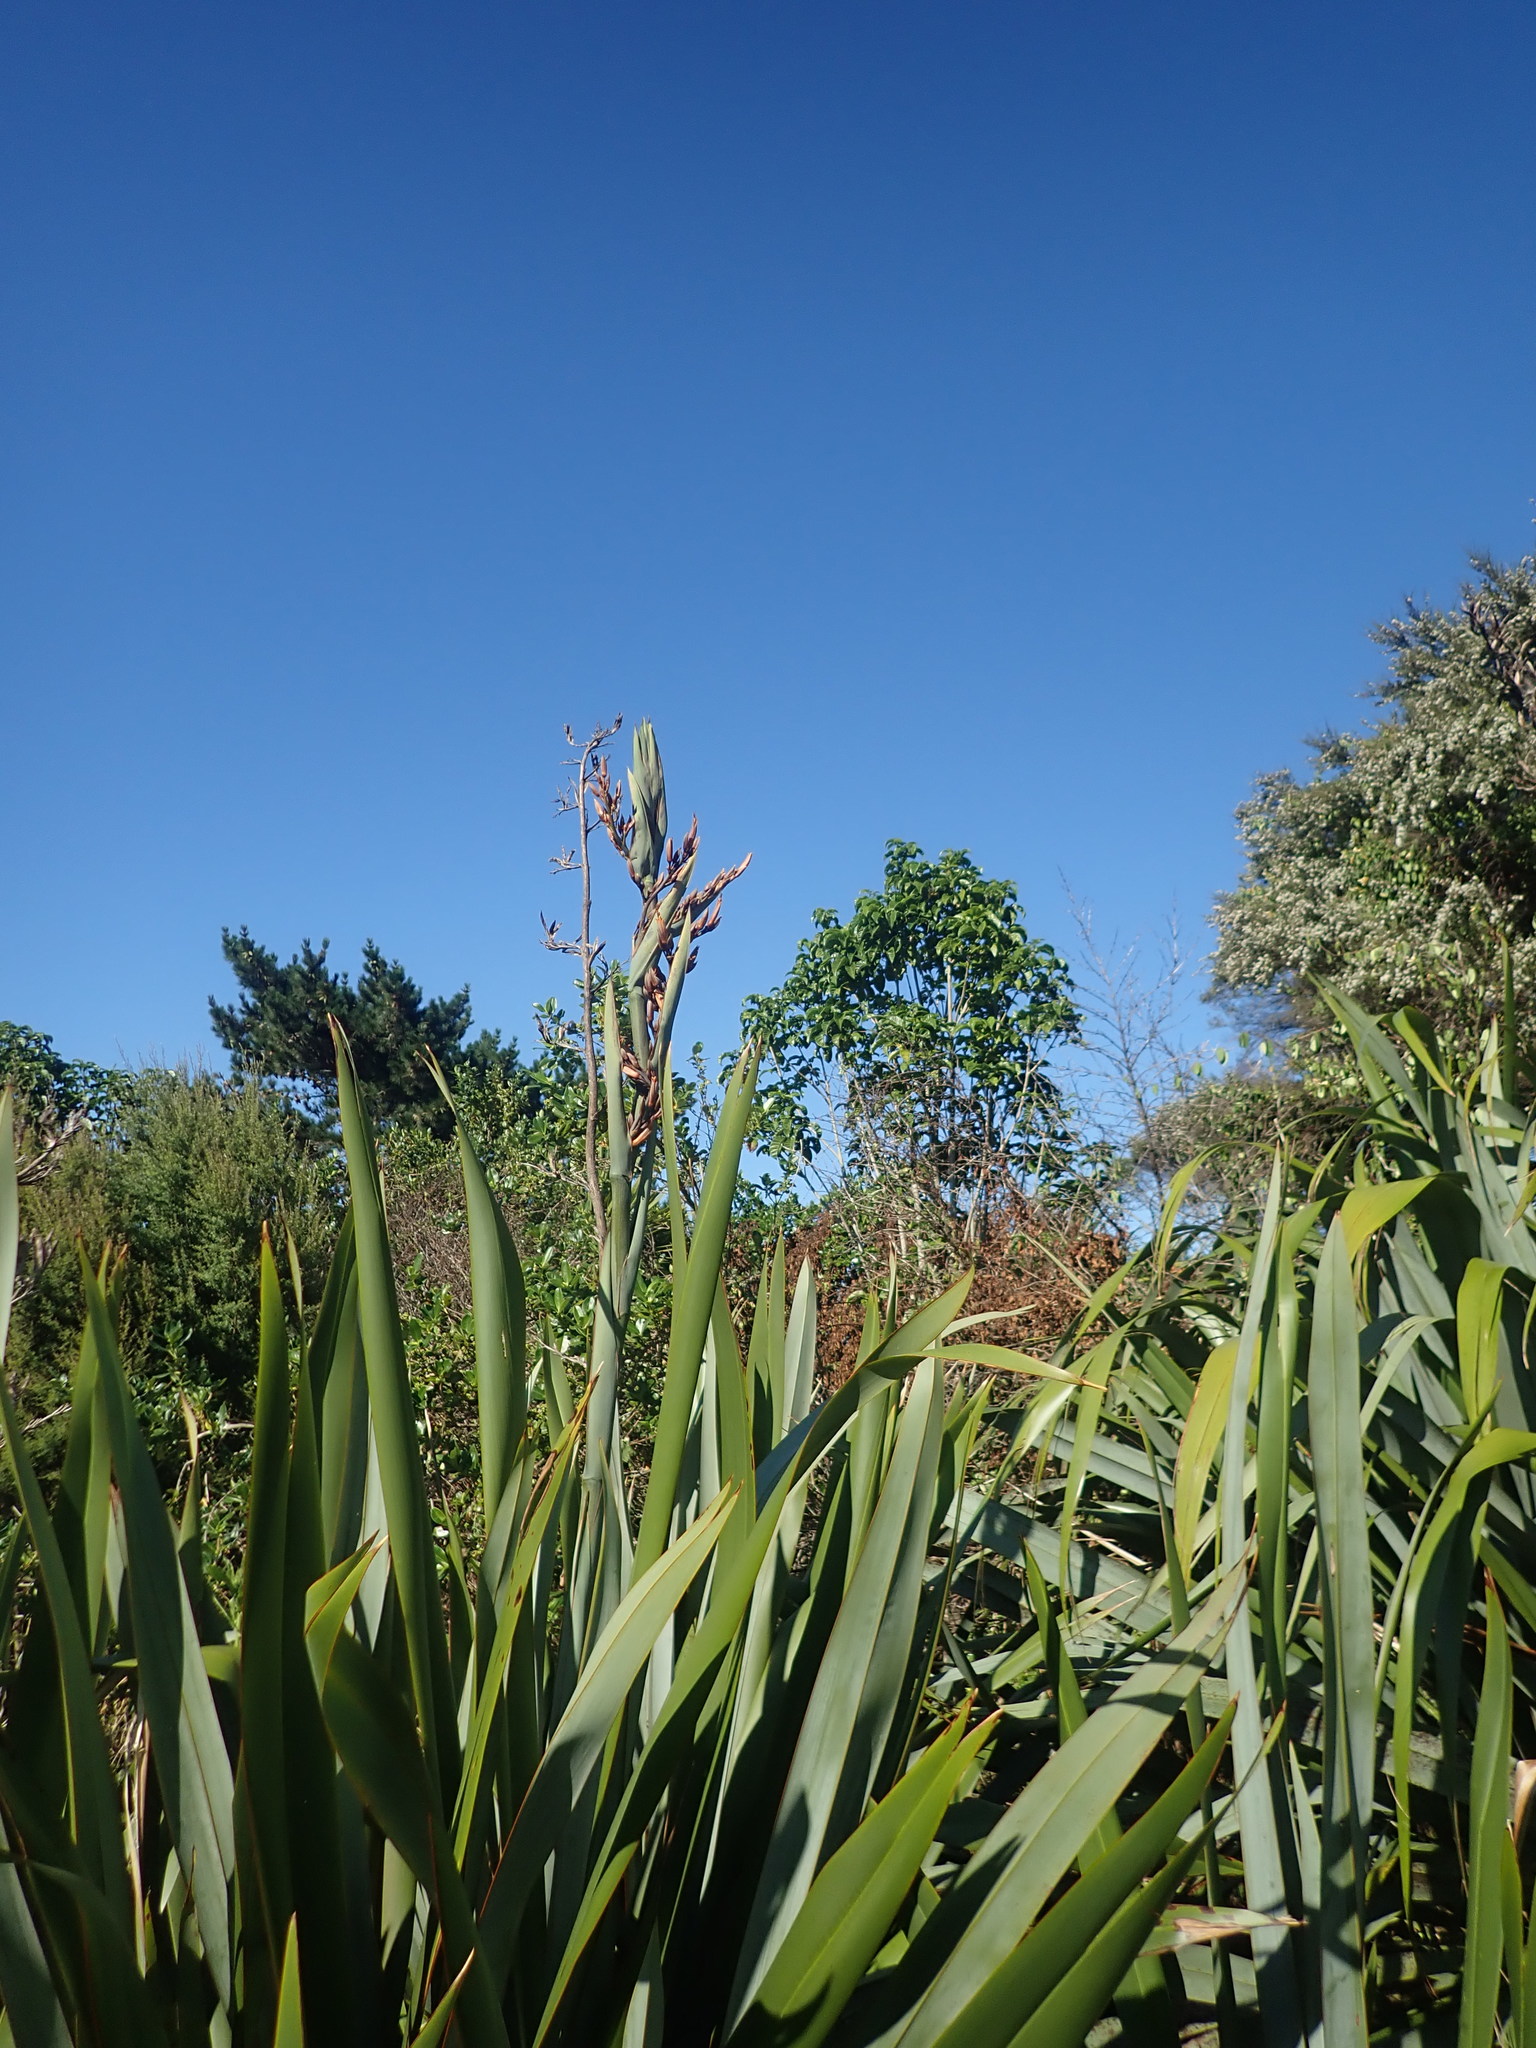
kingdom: Plantae
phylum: Tracheophyta
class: Magnoliopsida
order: Lamiales
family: Lamiaceae
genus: Vitex
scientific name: Vitex lucens
